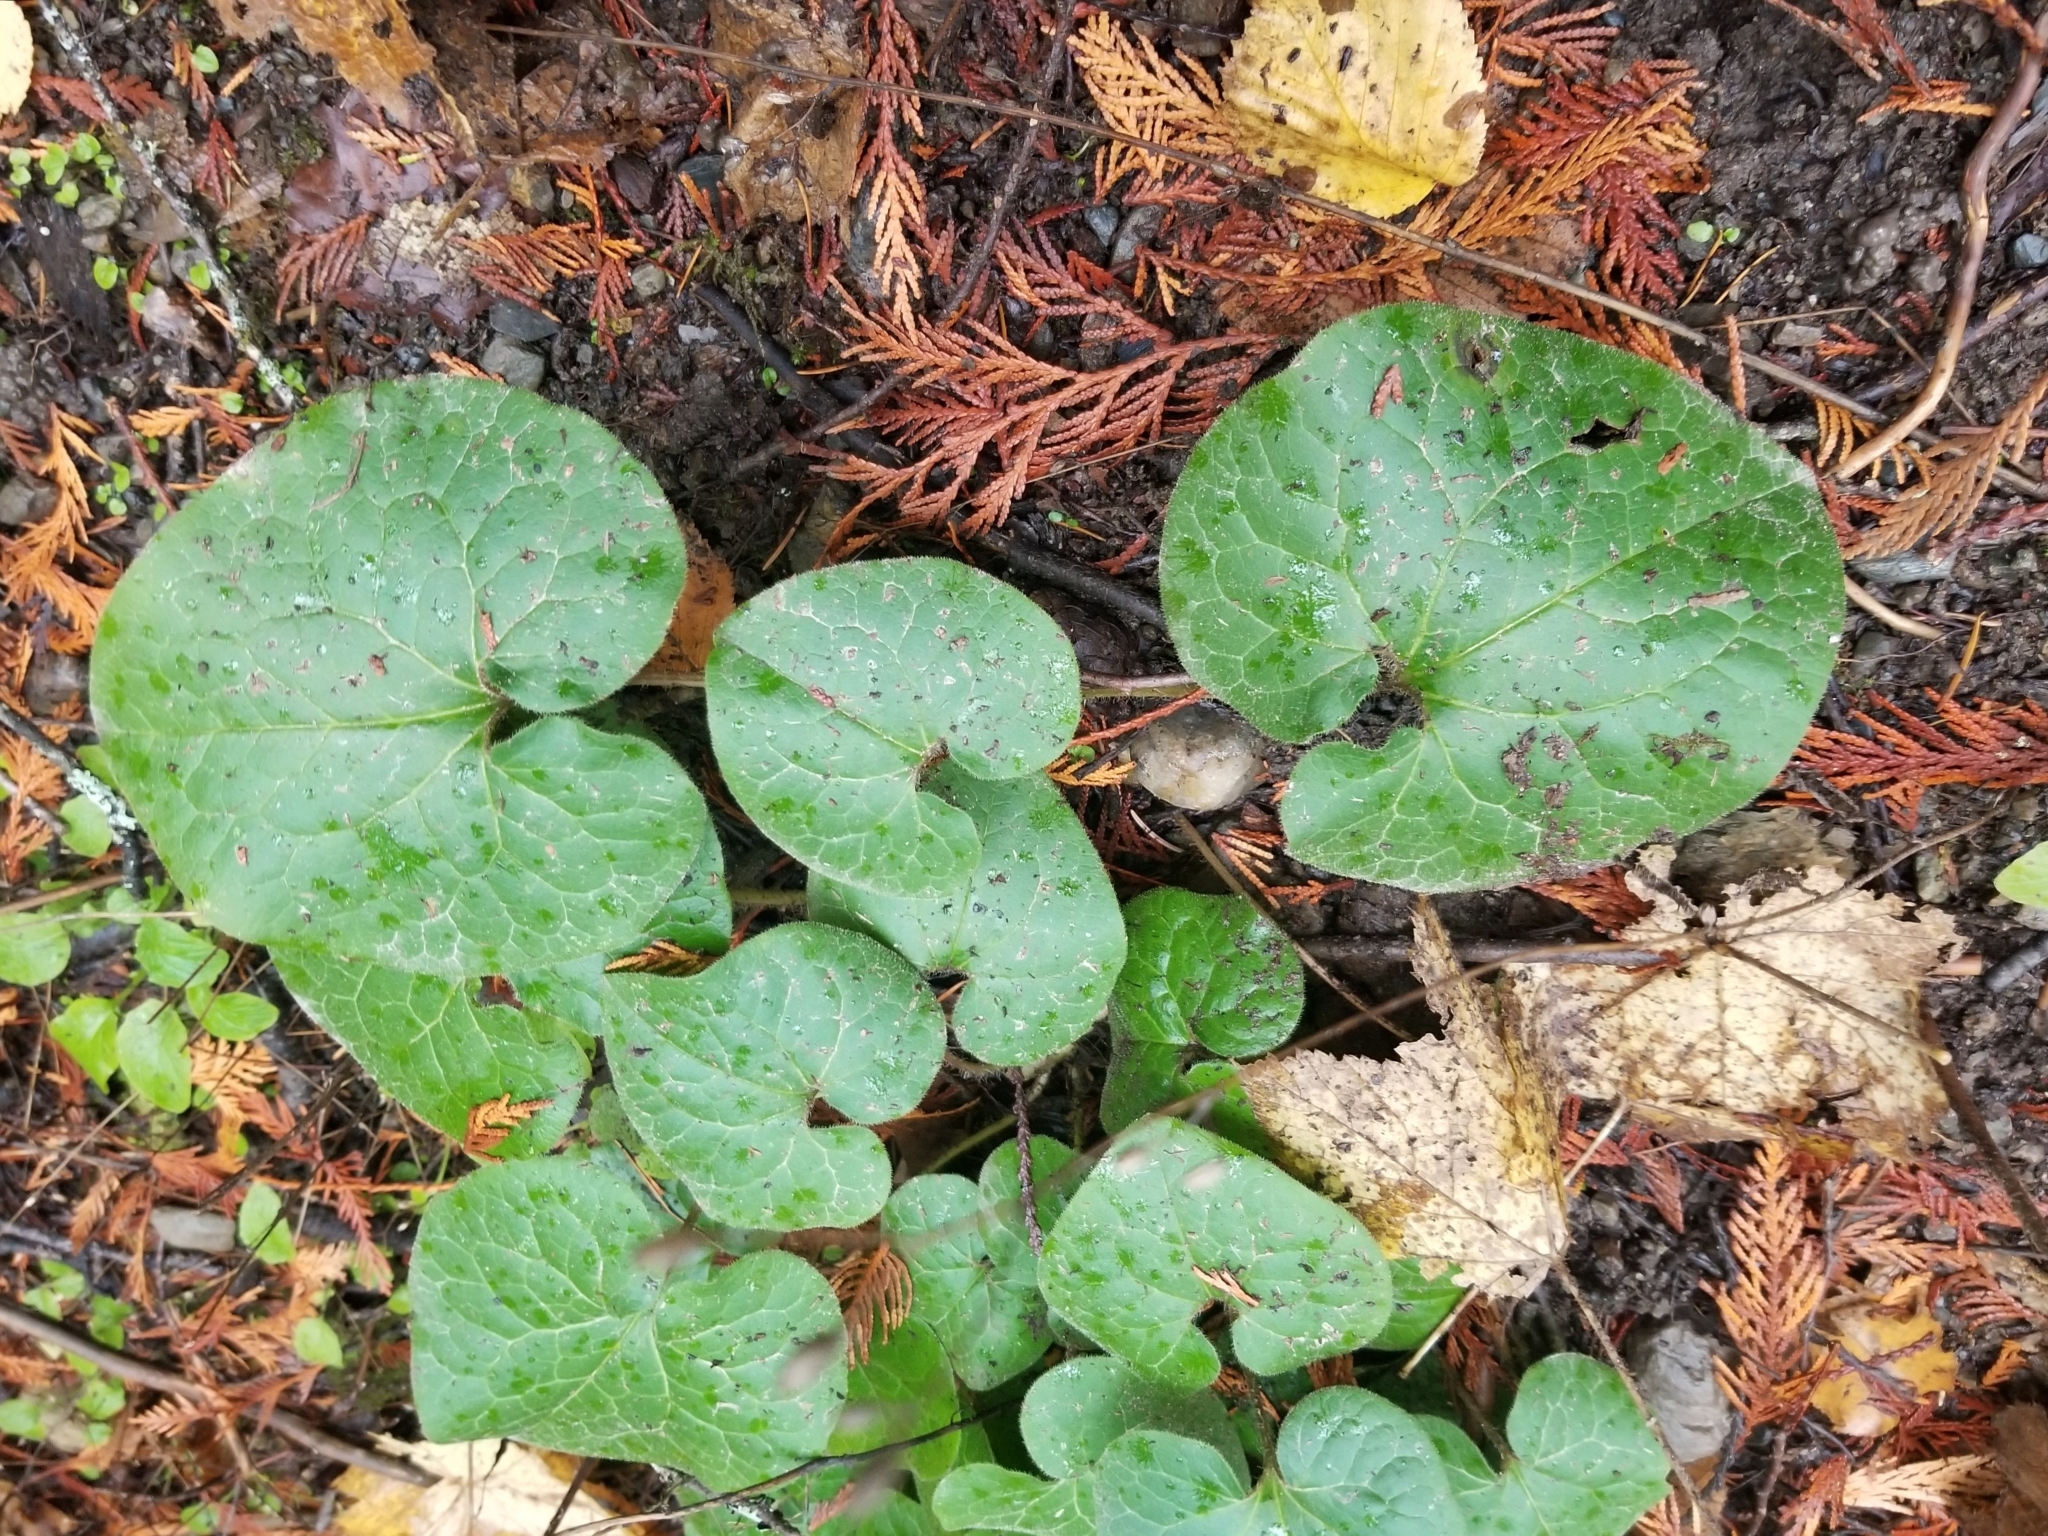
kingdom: Plantae
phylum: Tracheophyta
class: Magnoliopsida
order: Piperales
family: Aristolochiaceae
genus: Asarum
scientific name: Asarum caudatum
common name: Wild ginger
